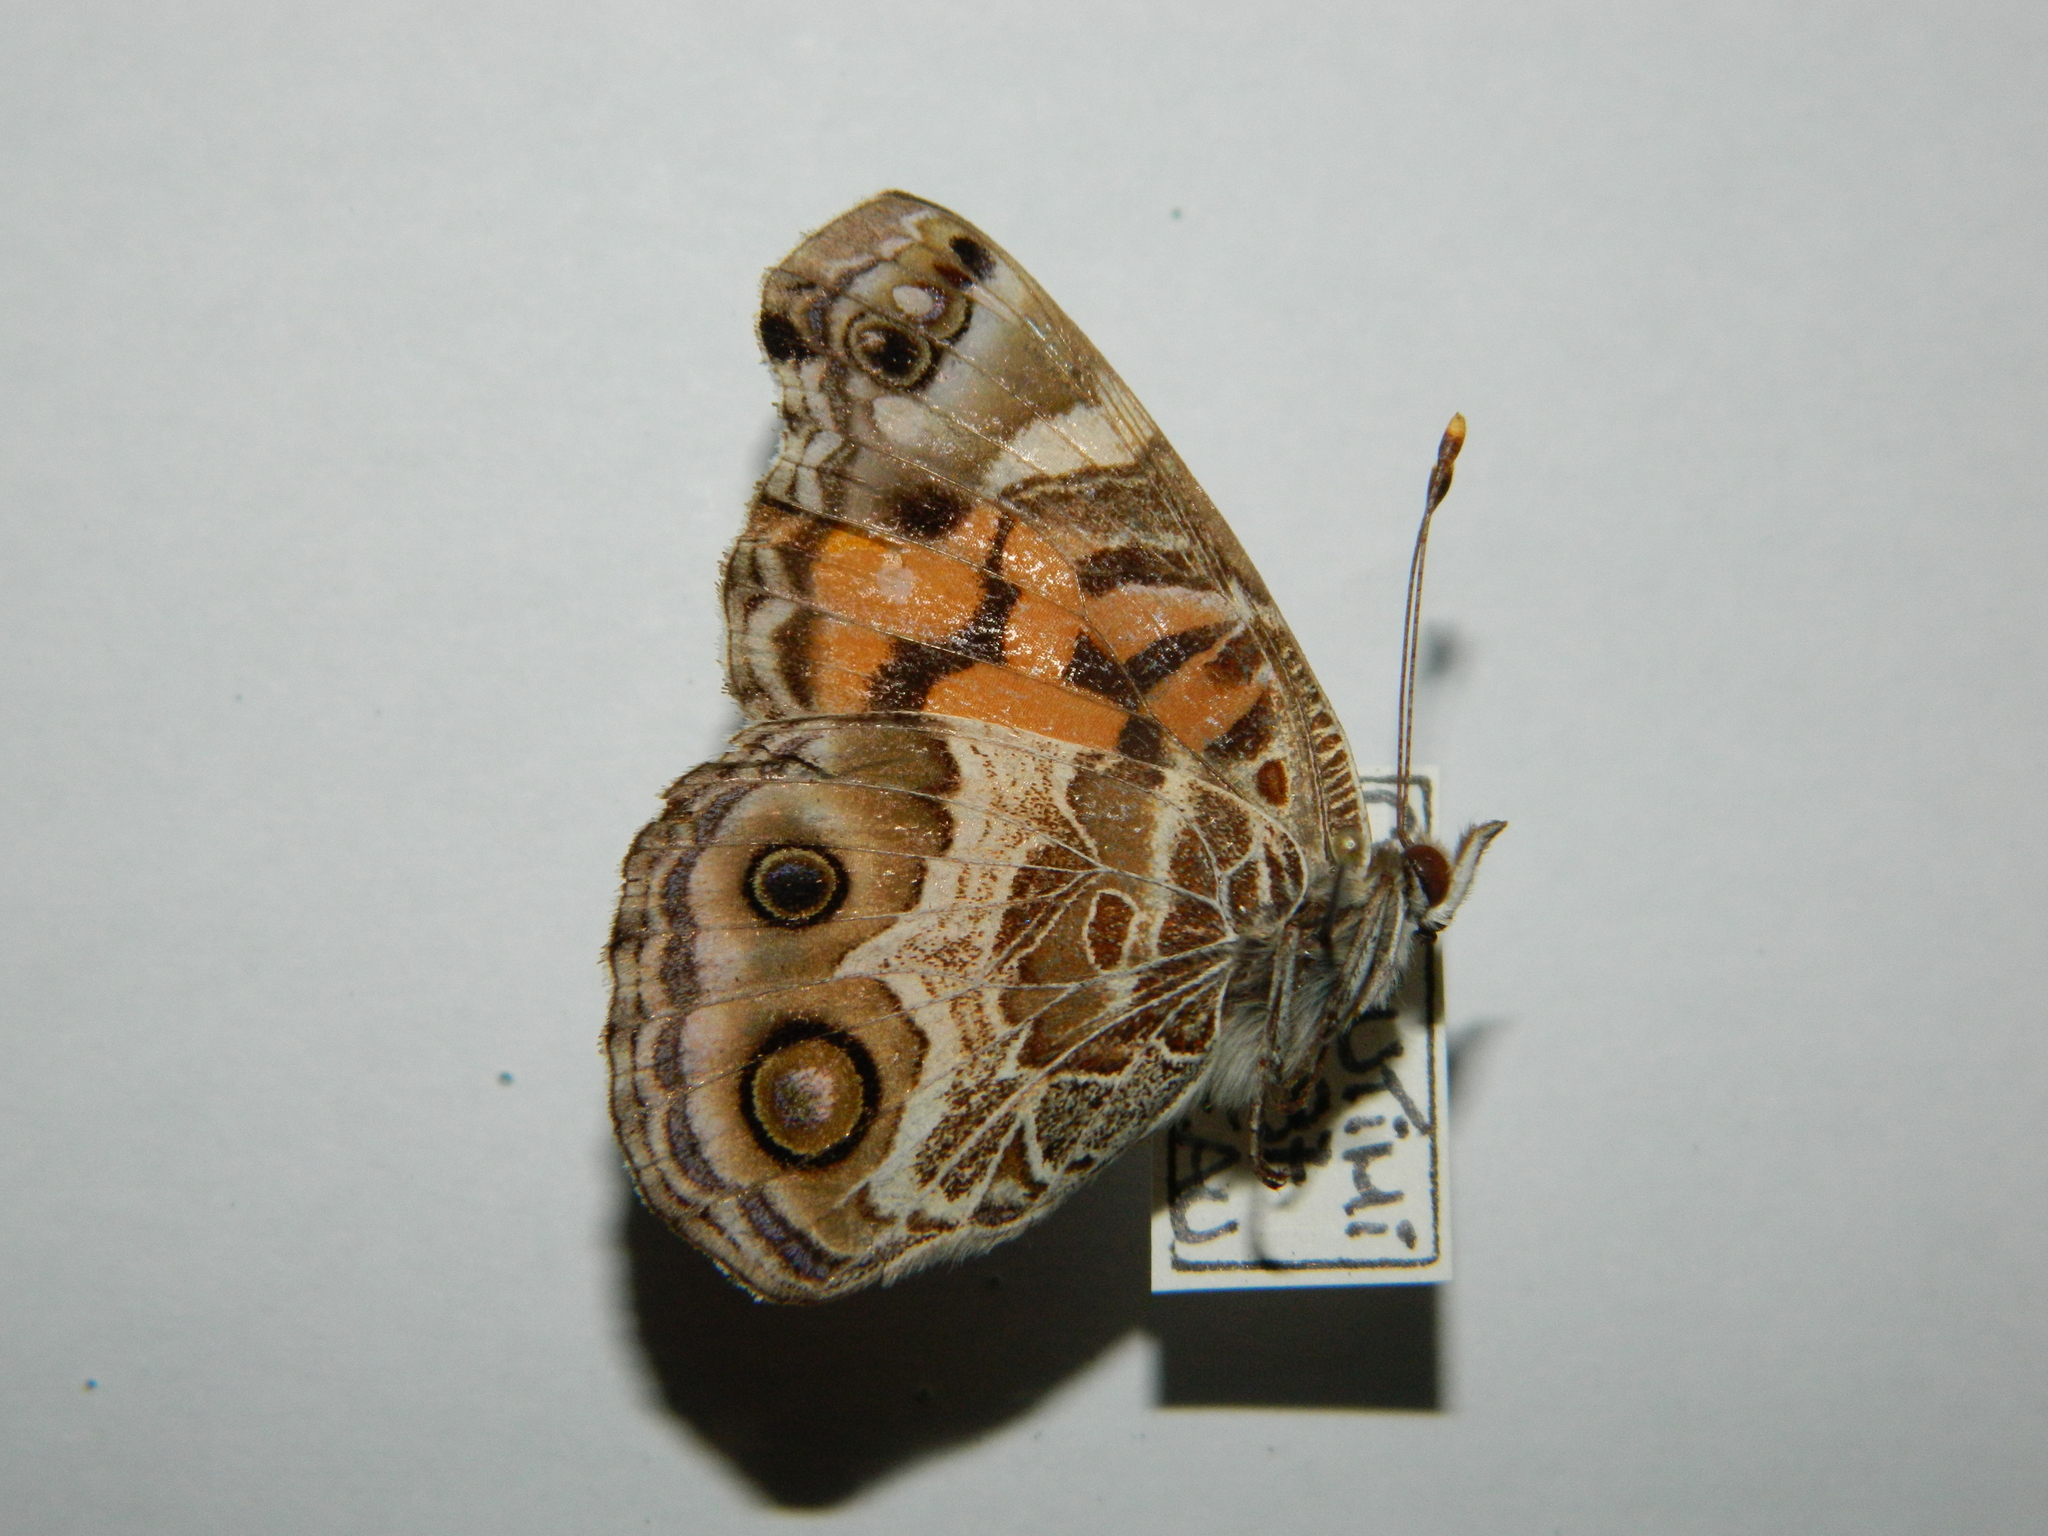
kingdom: Animalia
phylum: Arthropoda
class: Insecta
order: Lepidoptera
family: Nymphalidae
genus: Vanessa
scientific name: Vanessa virginiensis
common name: American lady
